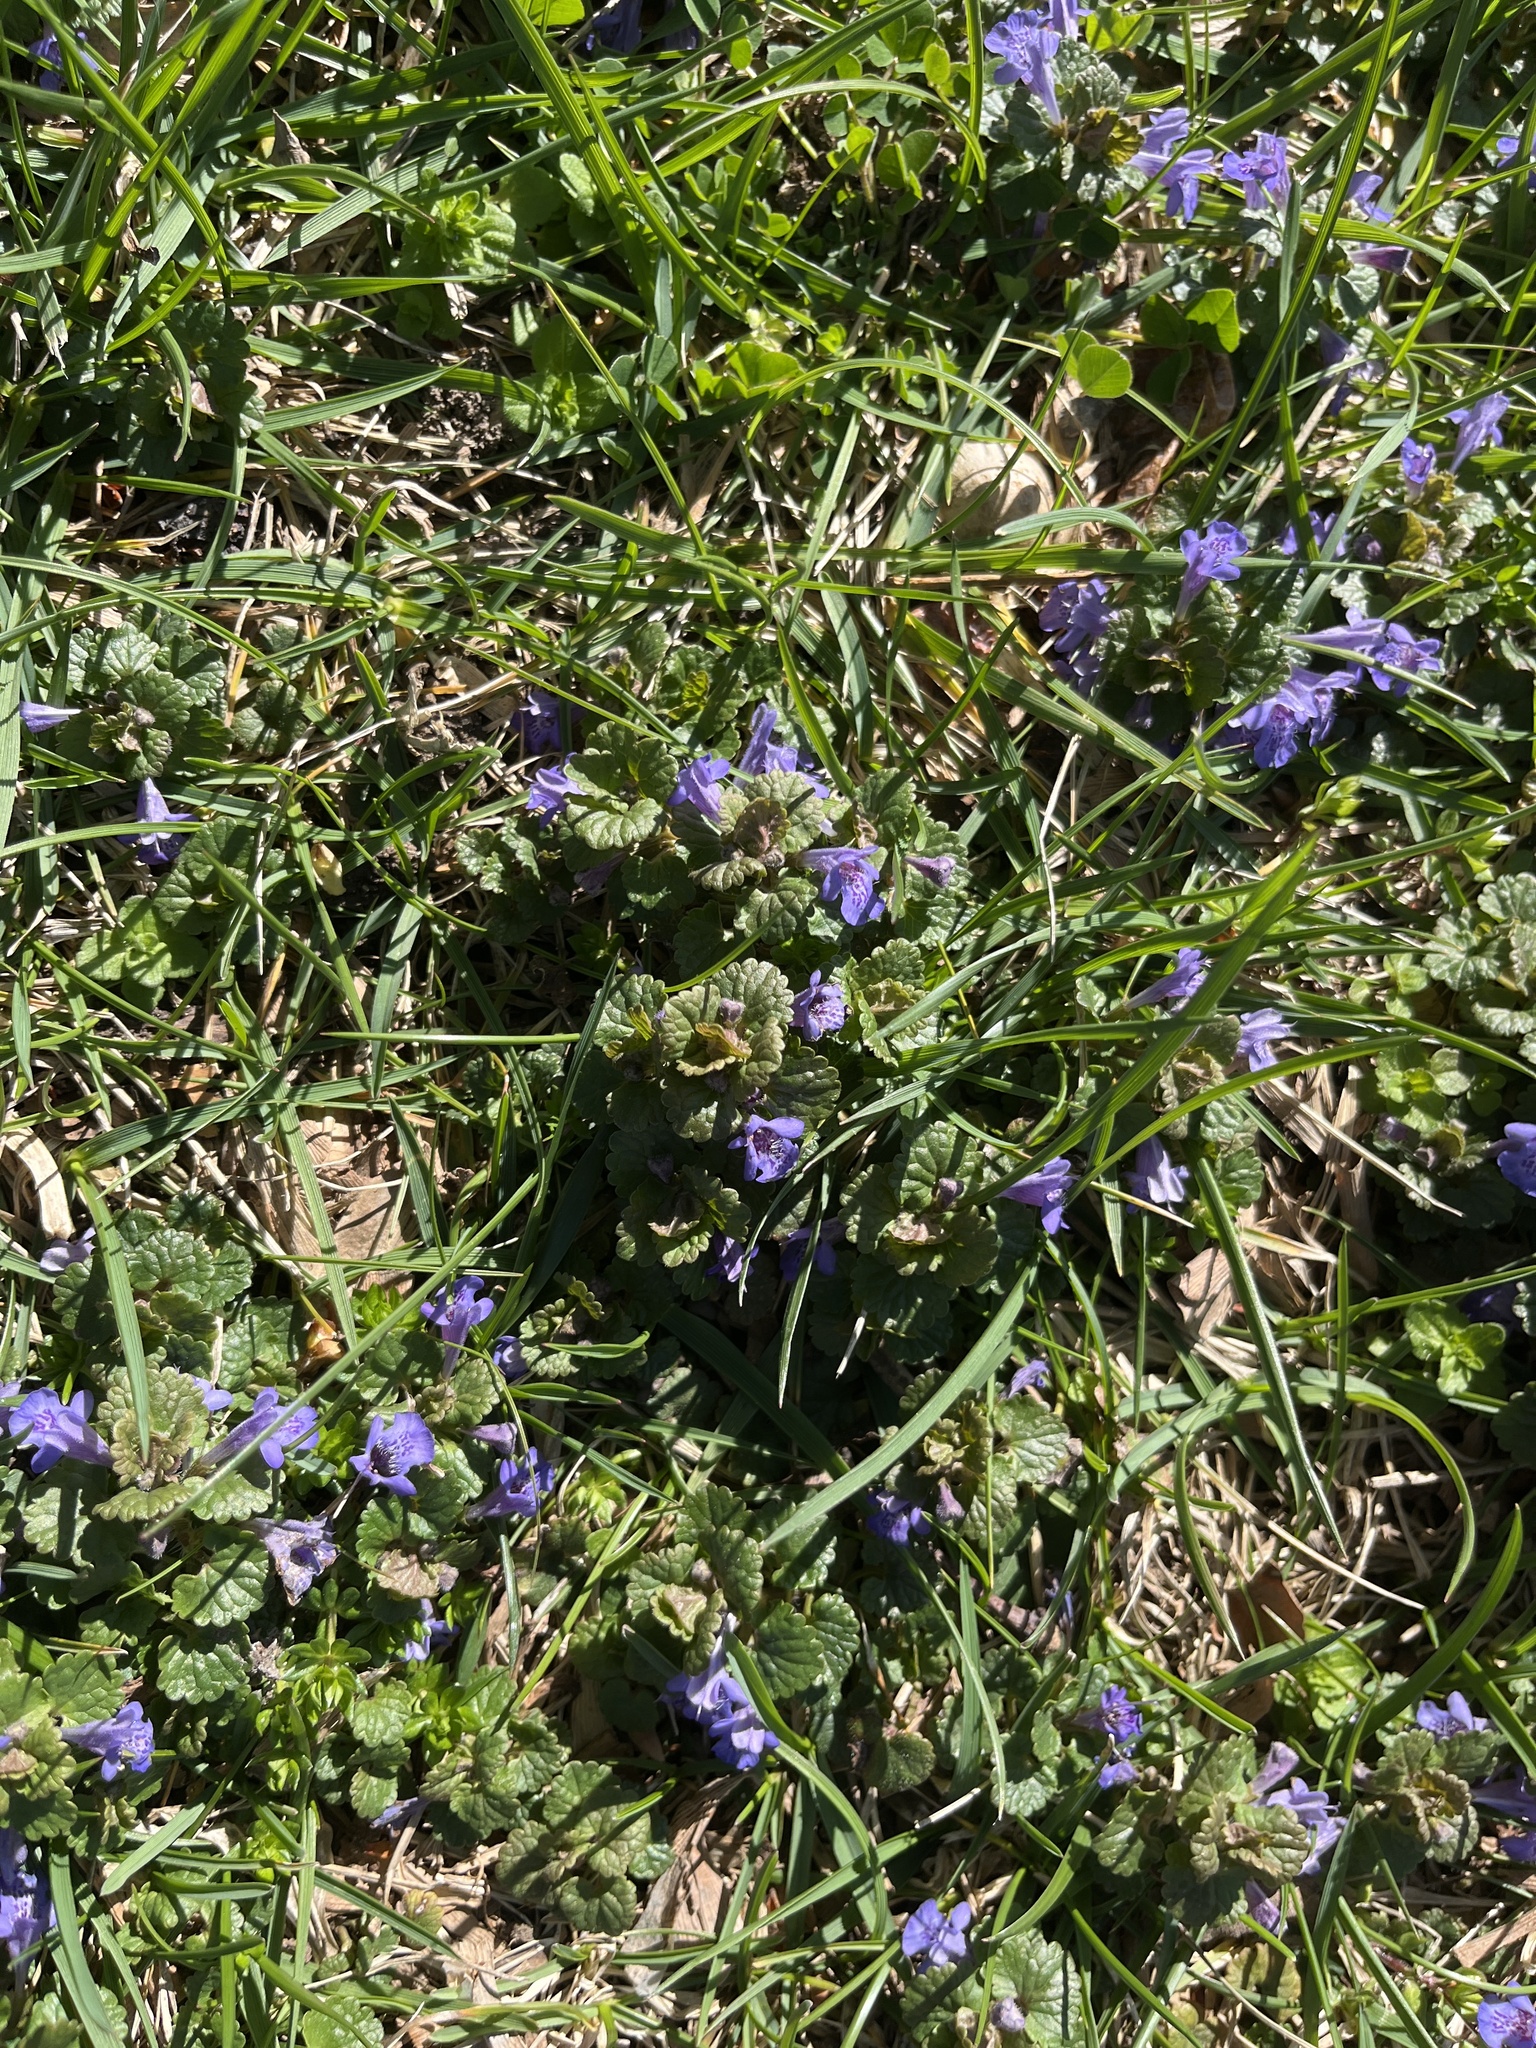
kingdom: Plantae
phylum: Tracheophyta
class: Magnoliopsida
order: Lamiales
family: Lamiaceae
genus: Glechoma
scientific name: Glechoma hederacea
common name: Ground ivy
